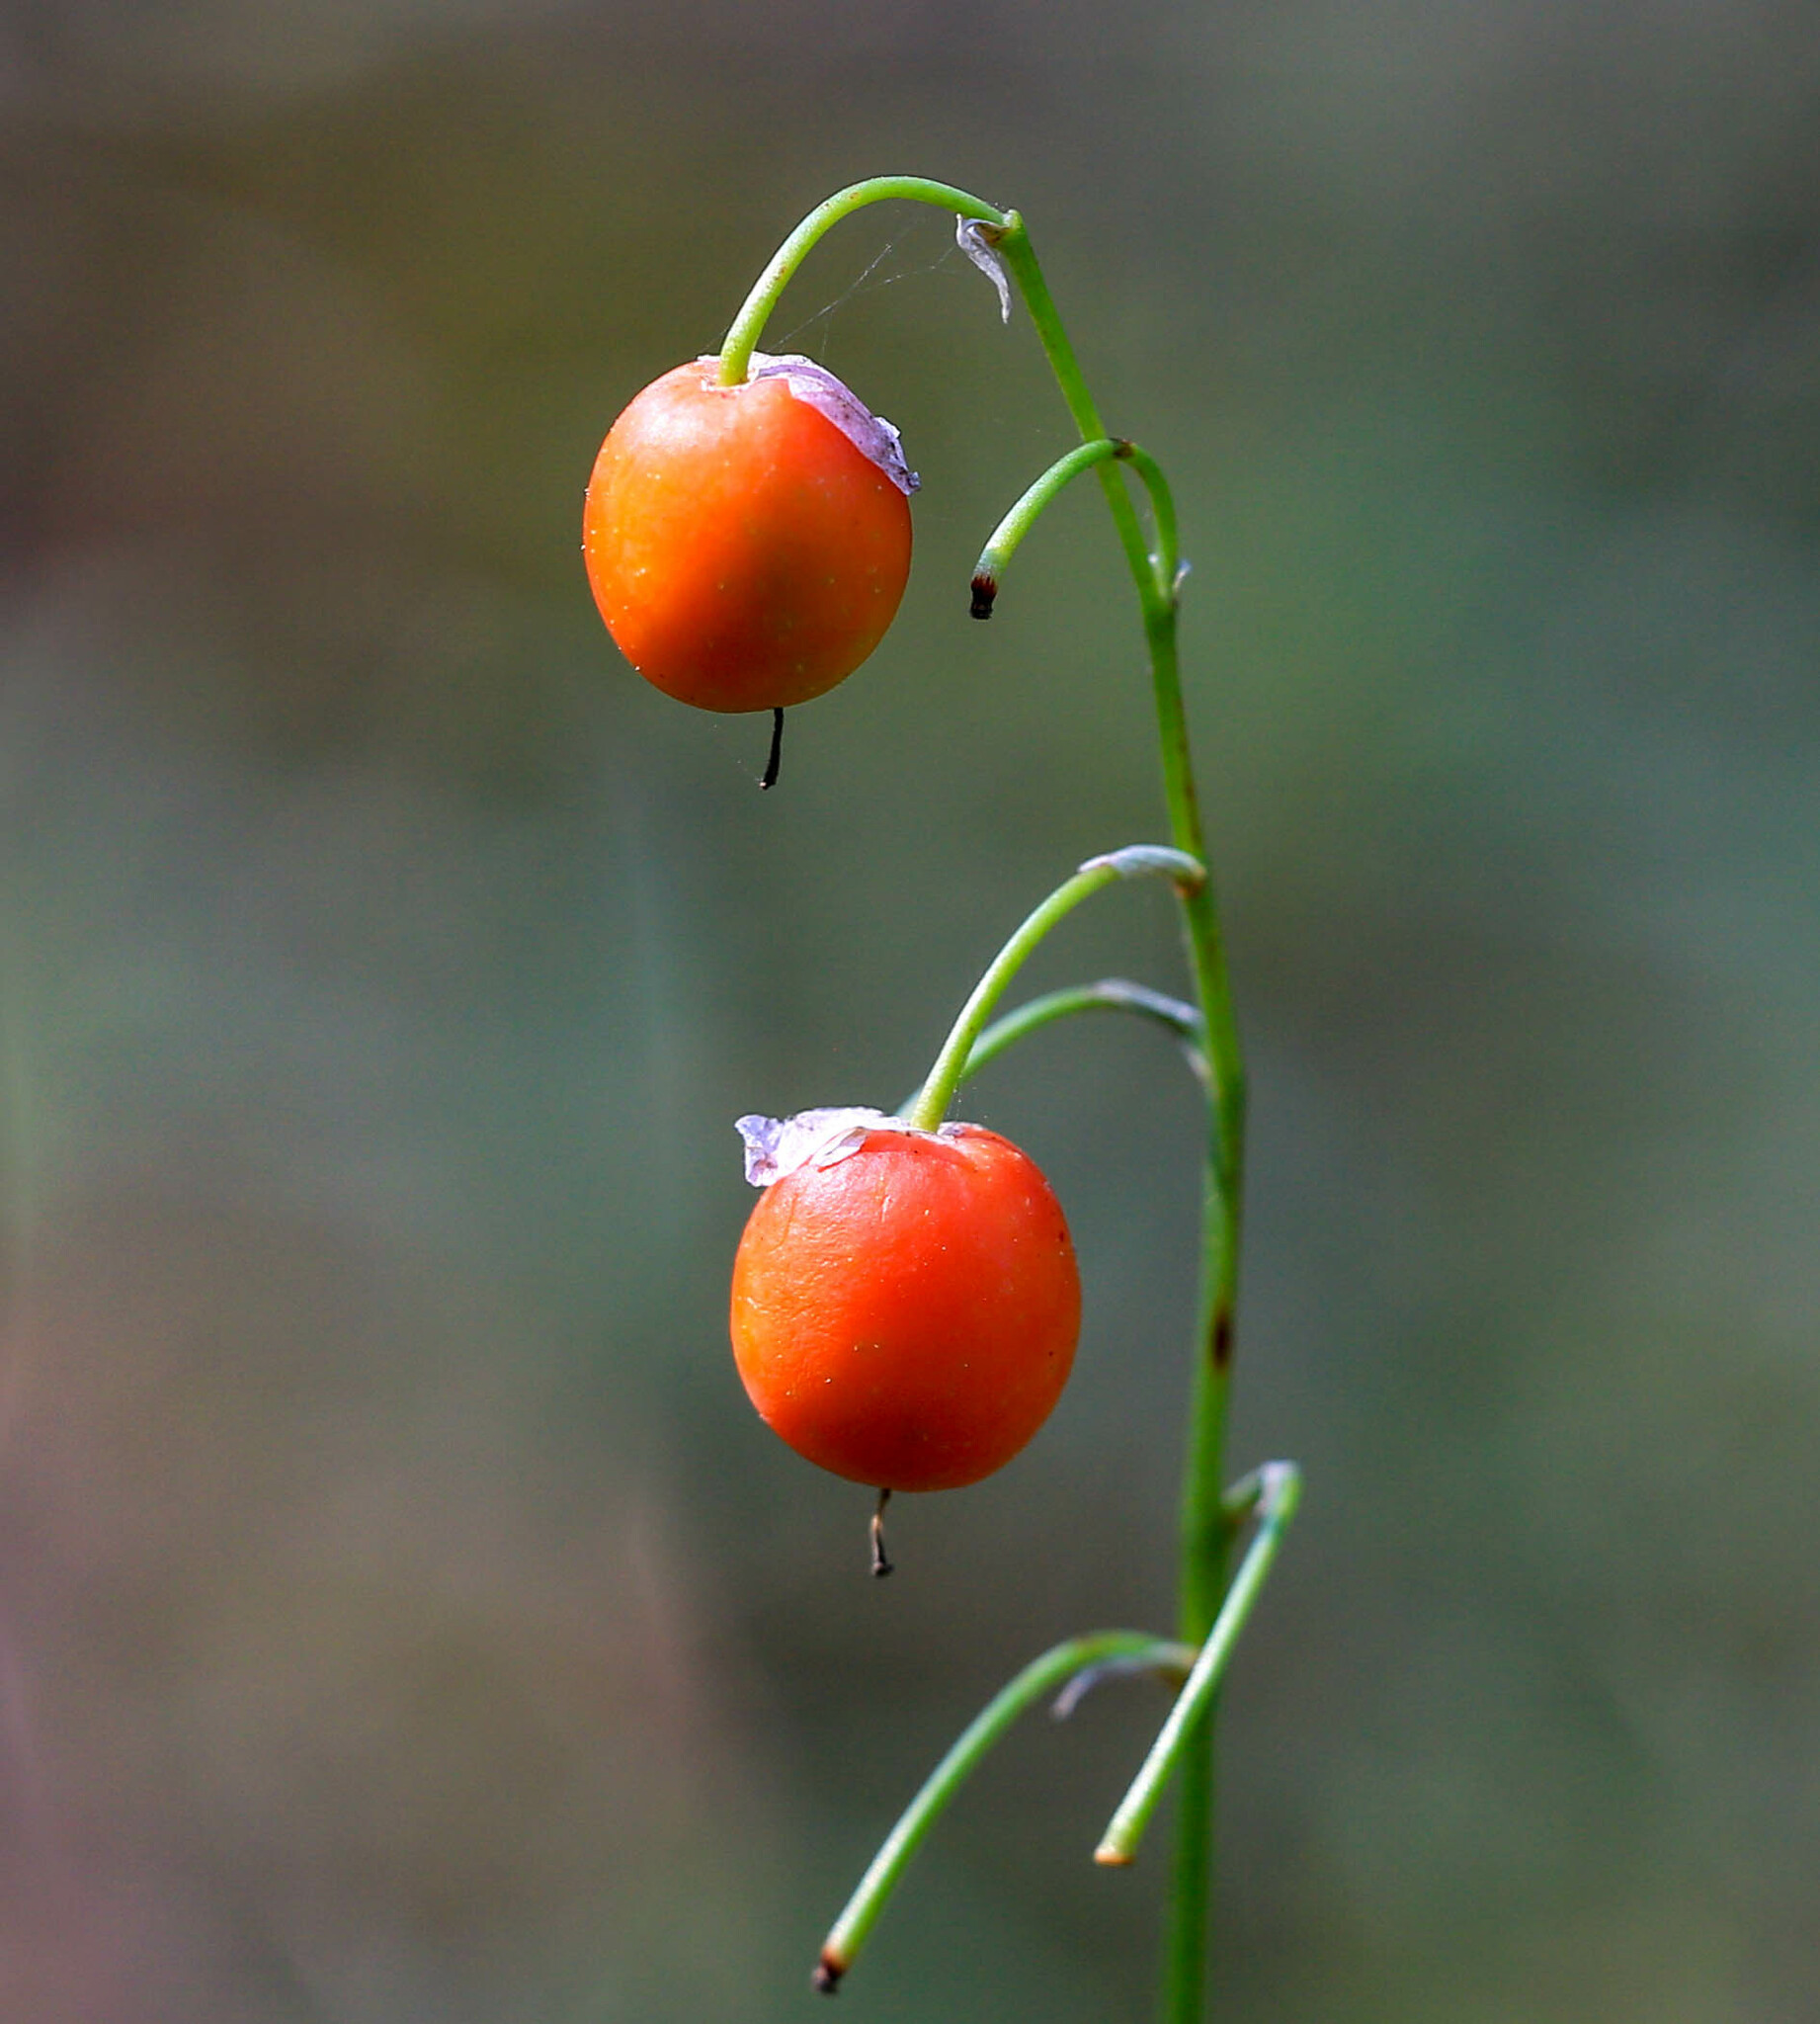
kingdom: Plantae
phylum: Tracheophyta
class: Liliopsida
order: Asparagales
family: Asparagaceae
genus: Convallaria
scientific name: Convallaria majalis
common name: Lily-of-the-valley
